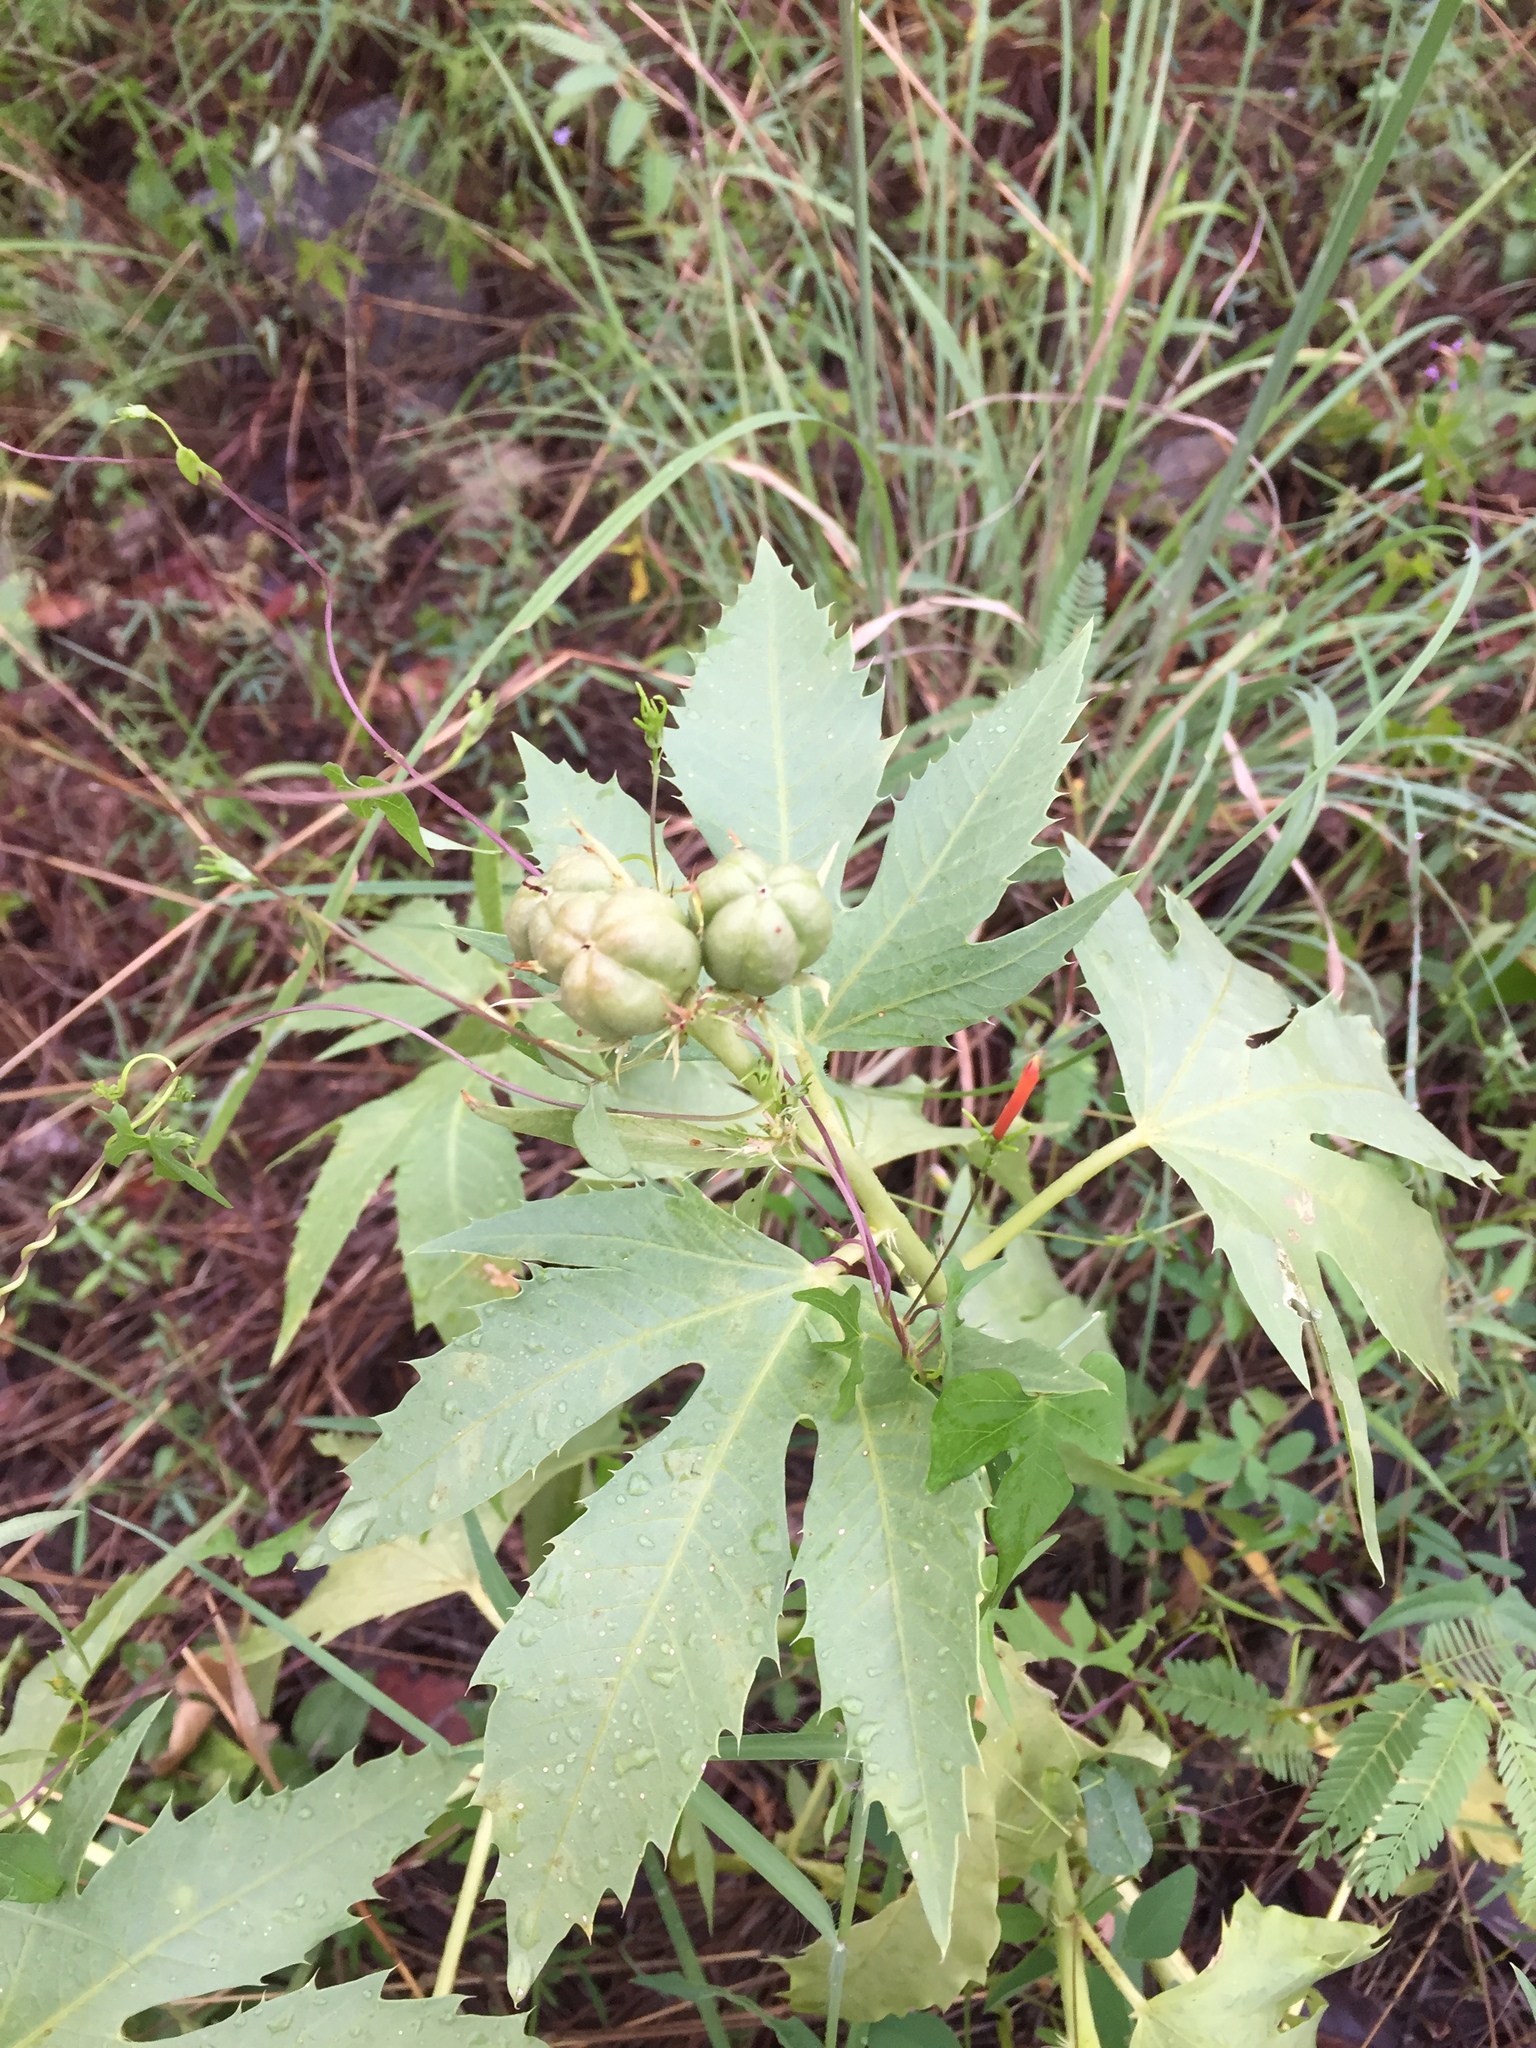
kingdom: Plantae
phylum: Tracheophyta
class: Magnoliopsida
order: Malpighiales
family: Euphorbiaceae
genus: Jatropha
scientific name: Jatropha macrorhiza
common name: Ragged nettlespurge
